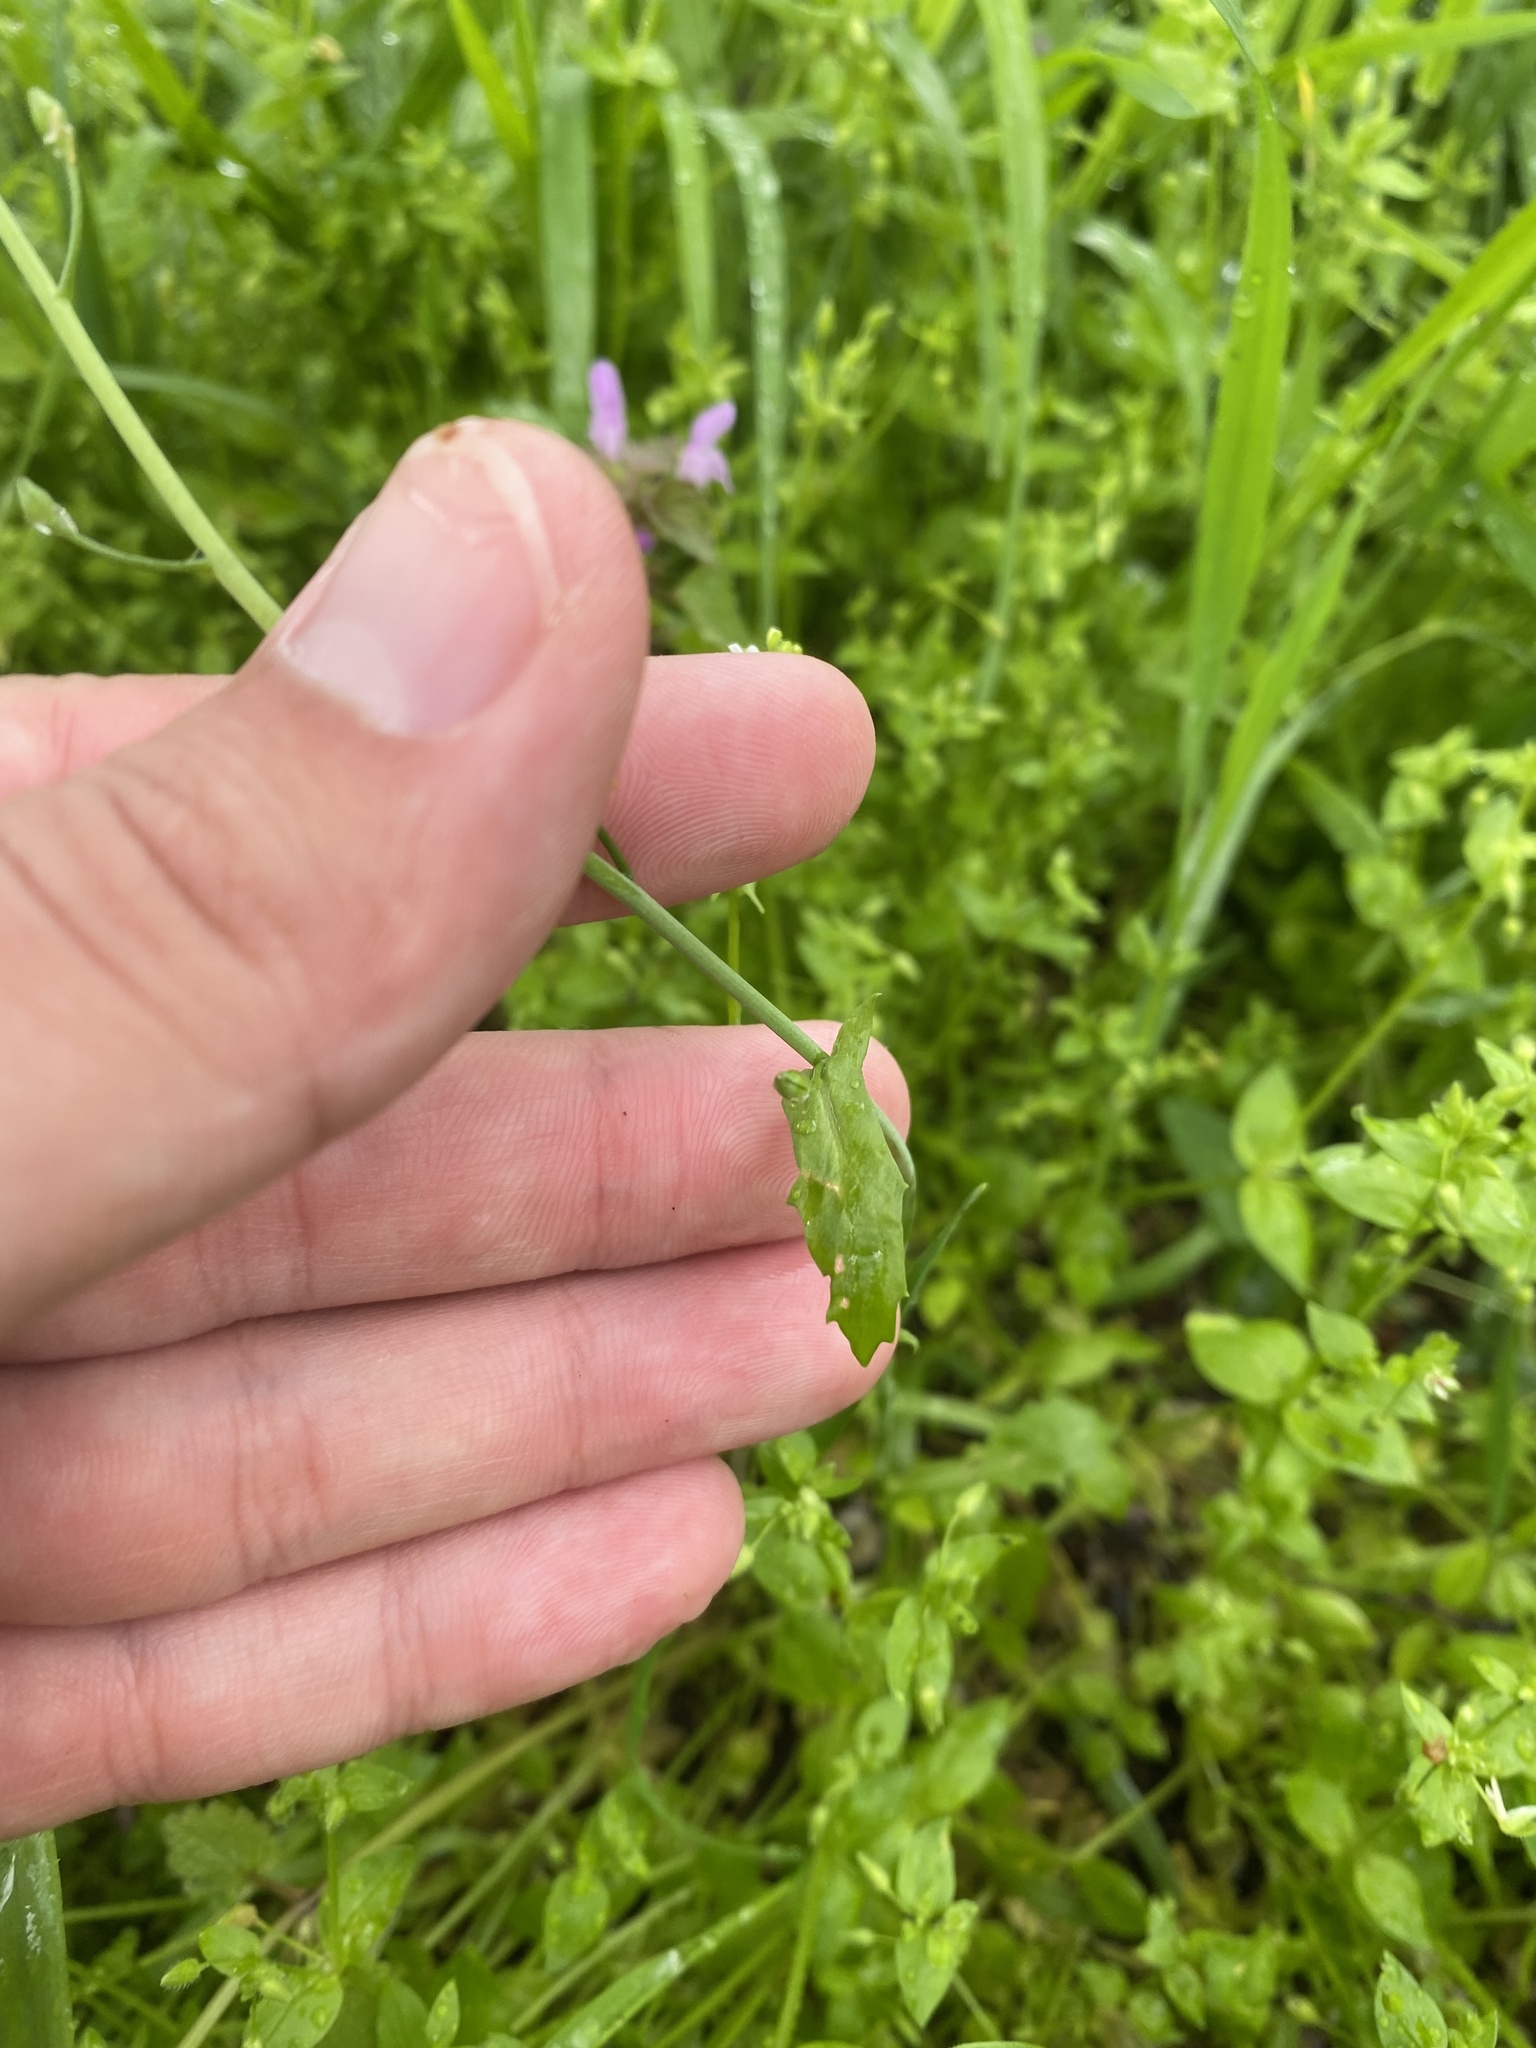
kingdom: Plantae
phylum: Tracheophyta
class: Magnoliopsida
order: Brassicales
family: Brassicaceae
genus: Calepina
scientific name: Calepina irregularis
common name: White ballmustard
